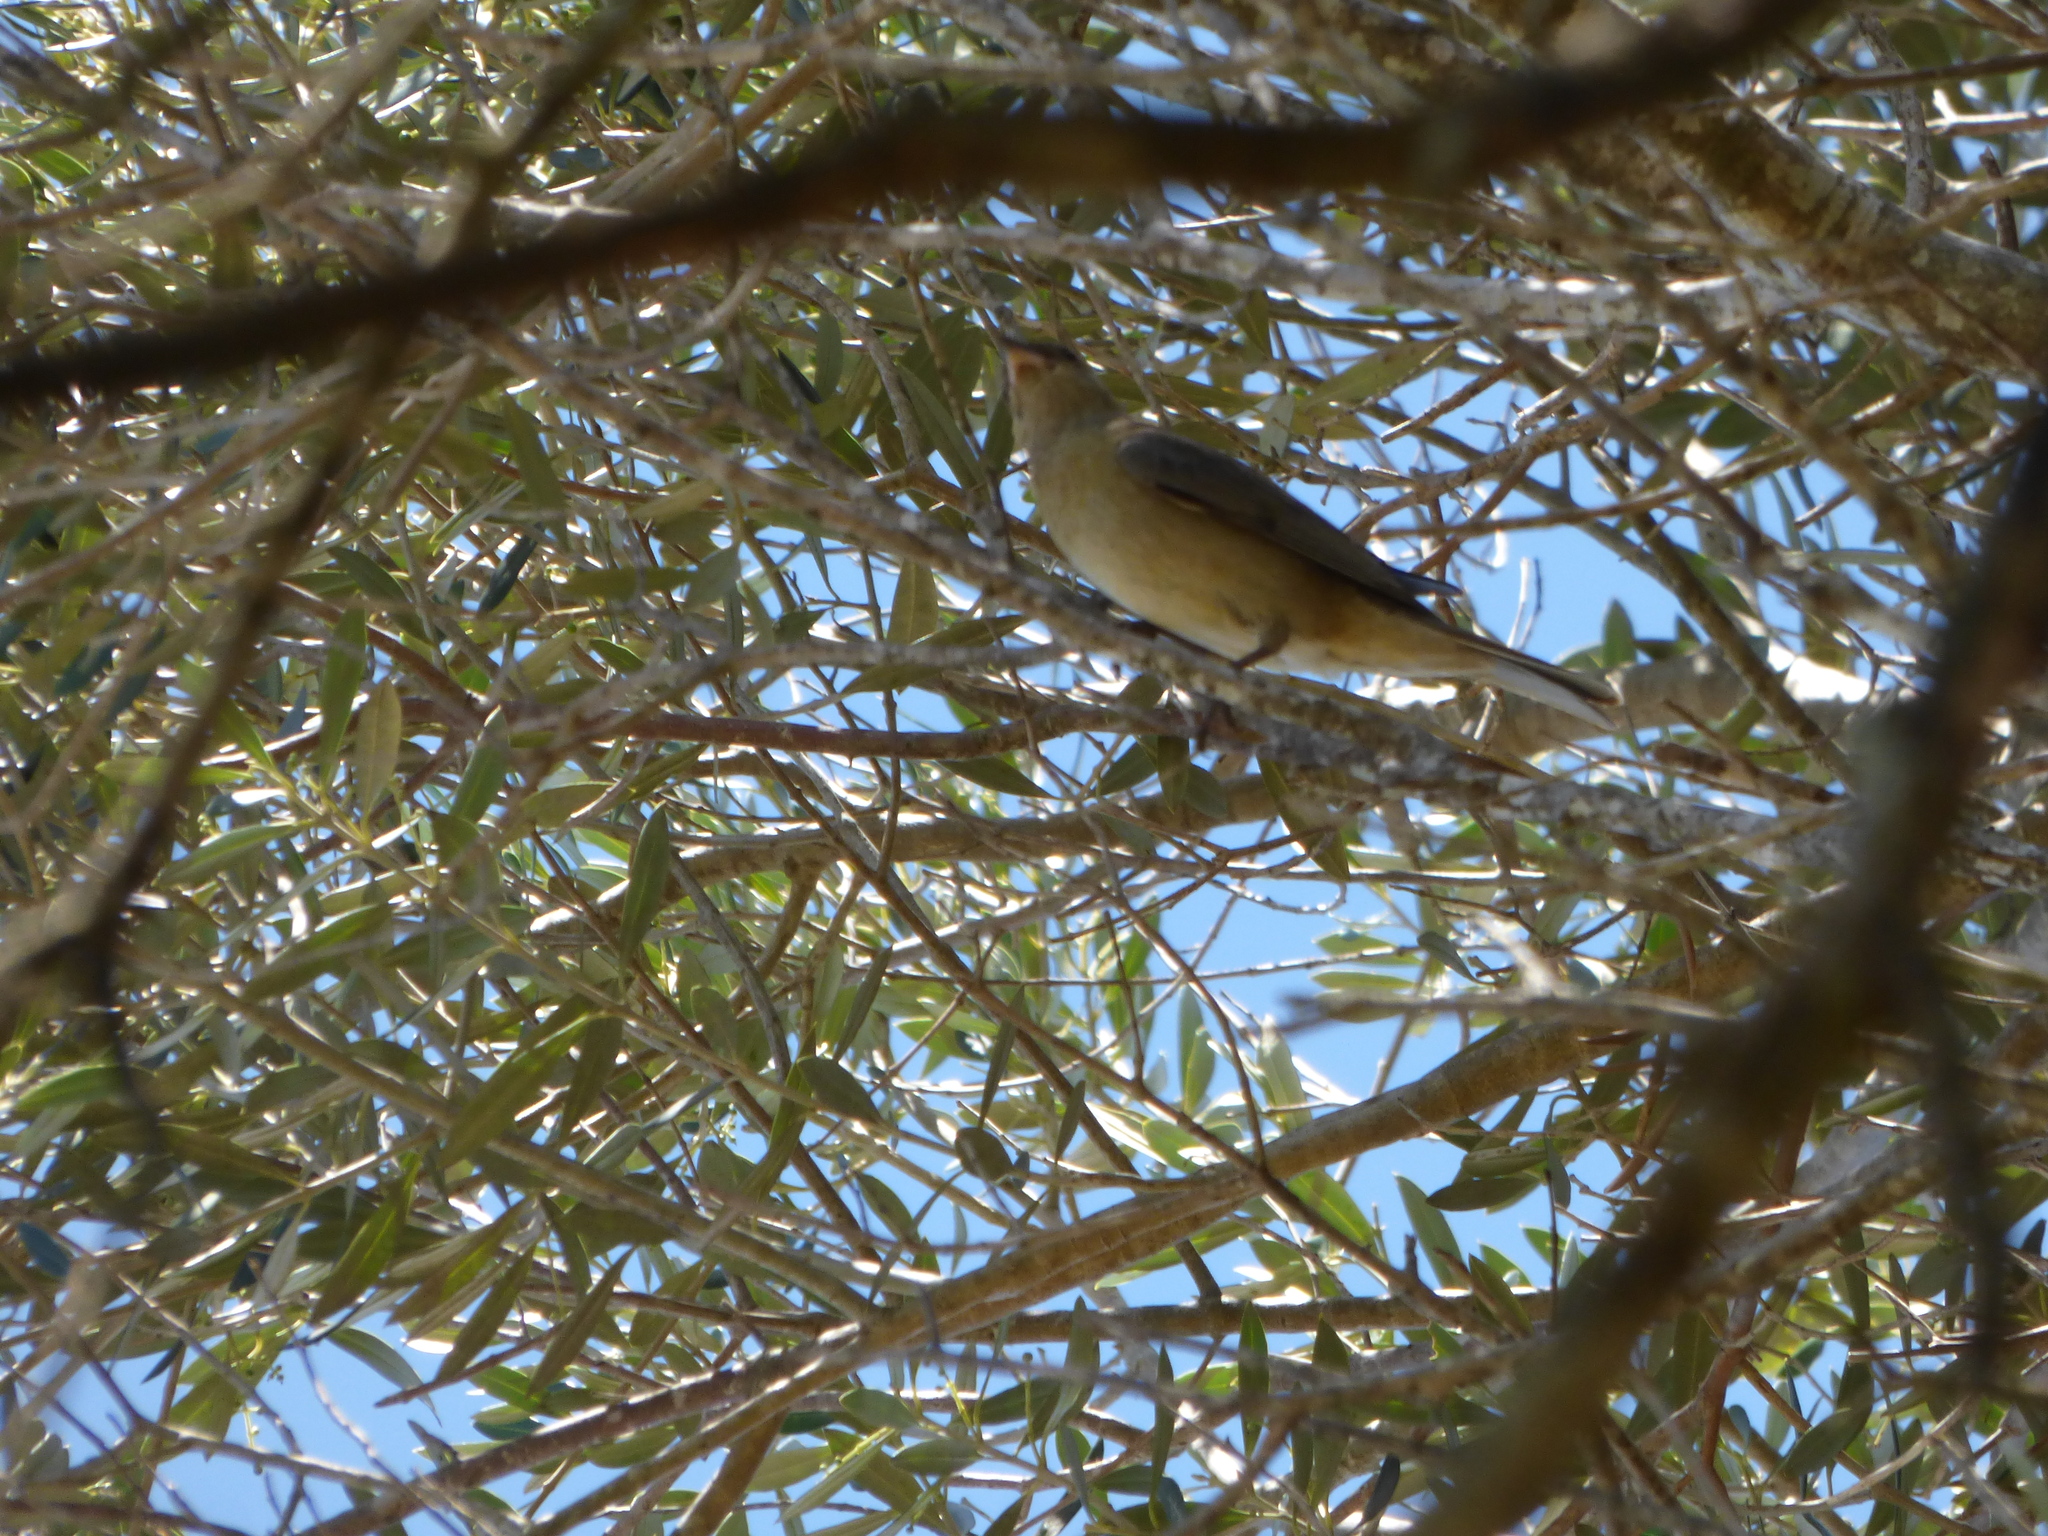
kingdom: Animalia
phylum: Chordata
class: Aves
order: Passeriformes
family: Thraupidae
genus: Rauenia
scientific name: Rauenia bonariensis
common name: Blue-and-yellow tanager
